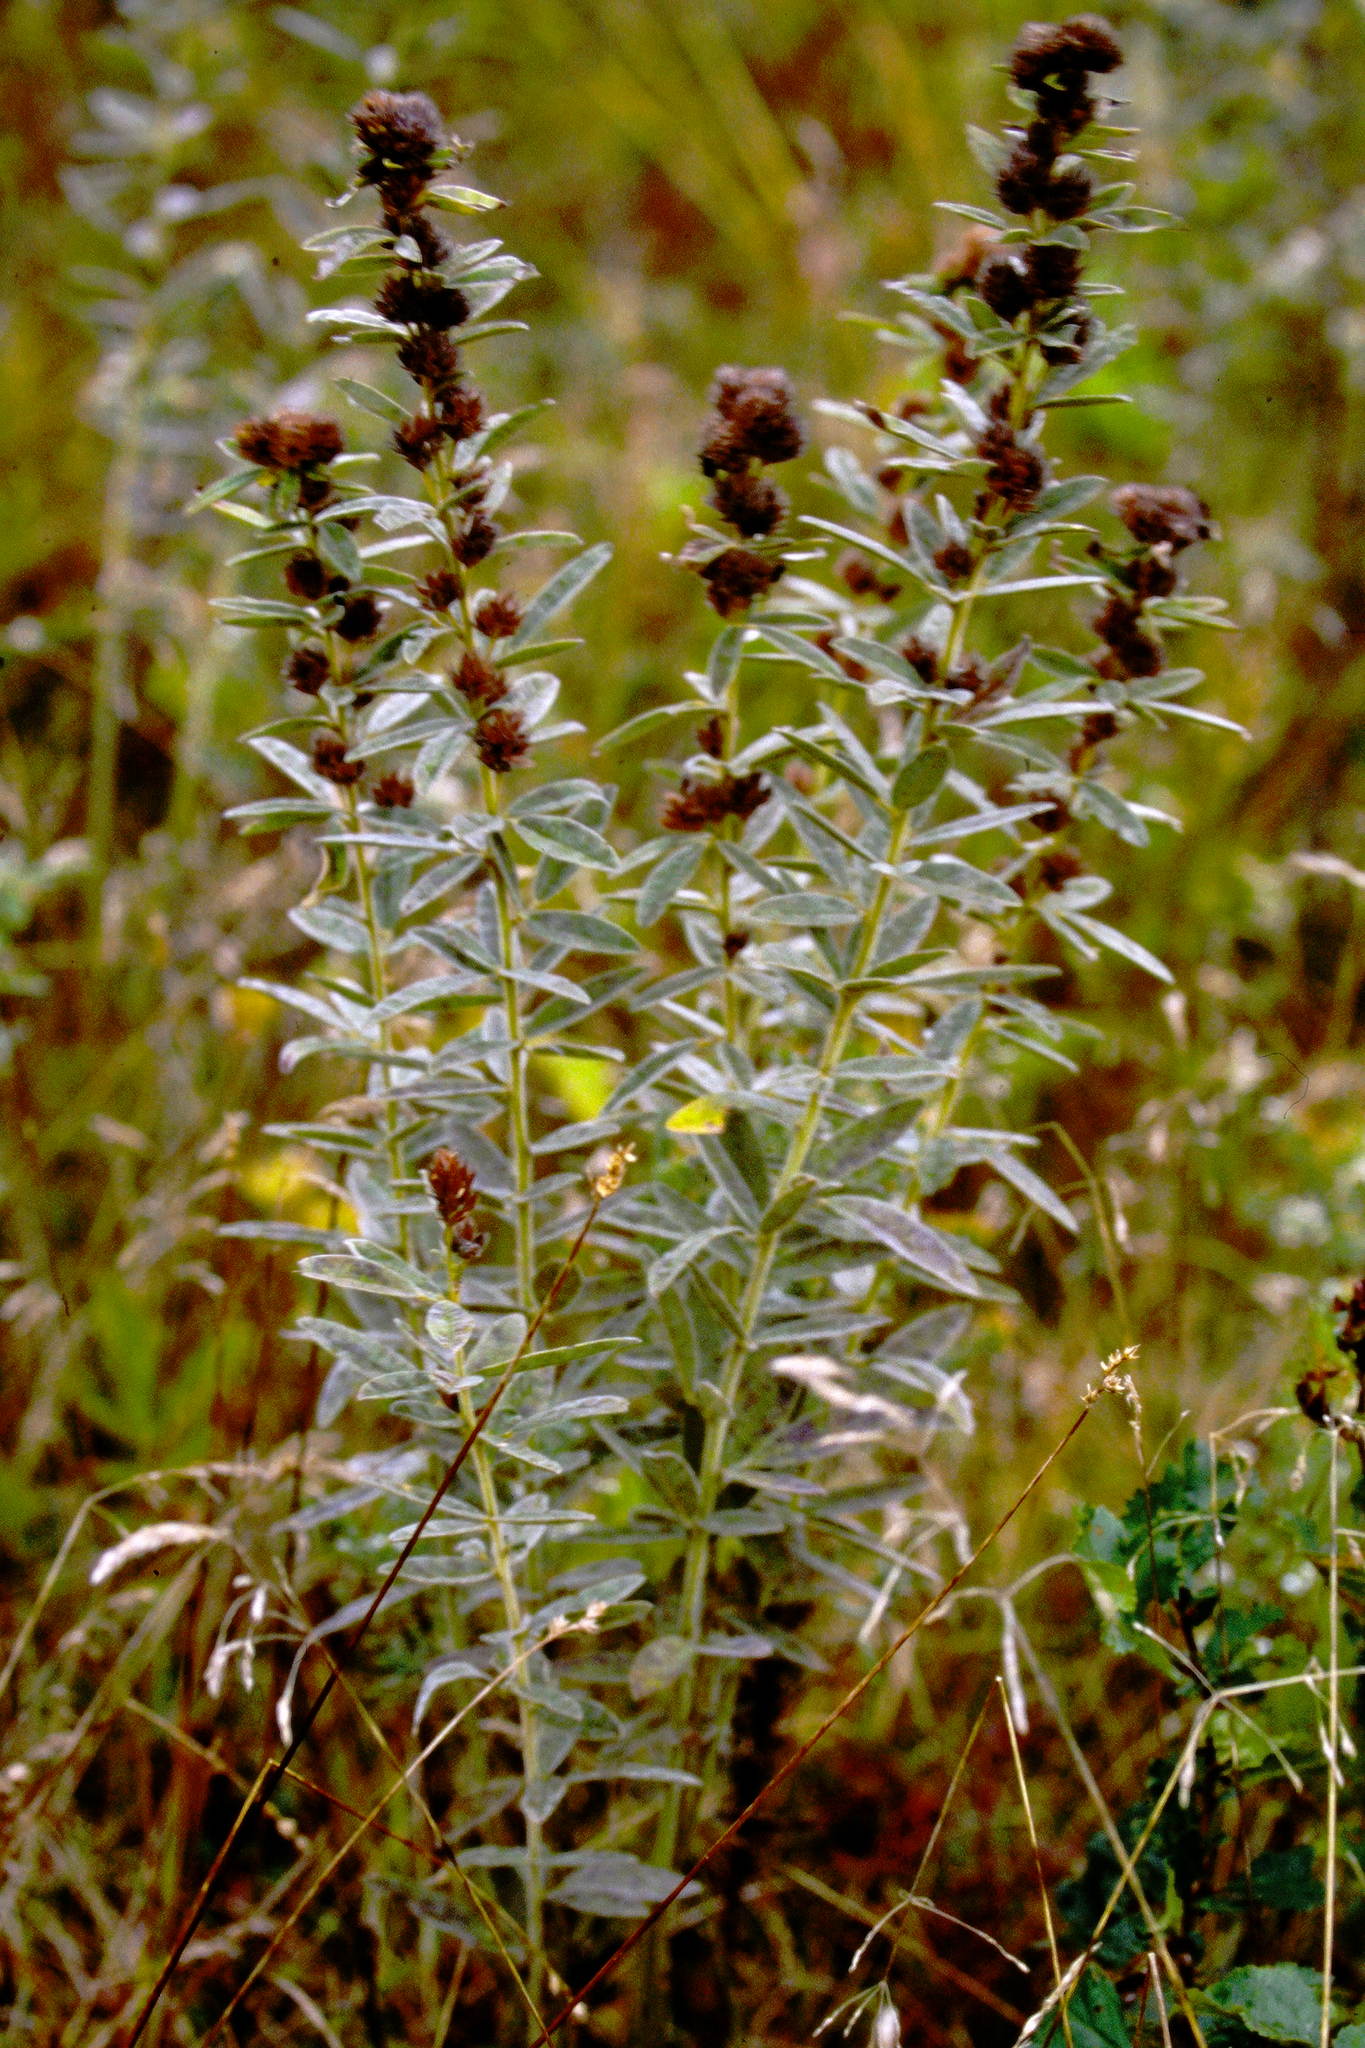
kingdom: Plantae
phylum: Tracheophyta
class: Magnoliopsida
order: Fabales
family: Fabaceae
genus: Lespedeza
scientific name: Lespedeza capitata
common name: Dusty clover
